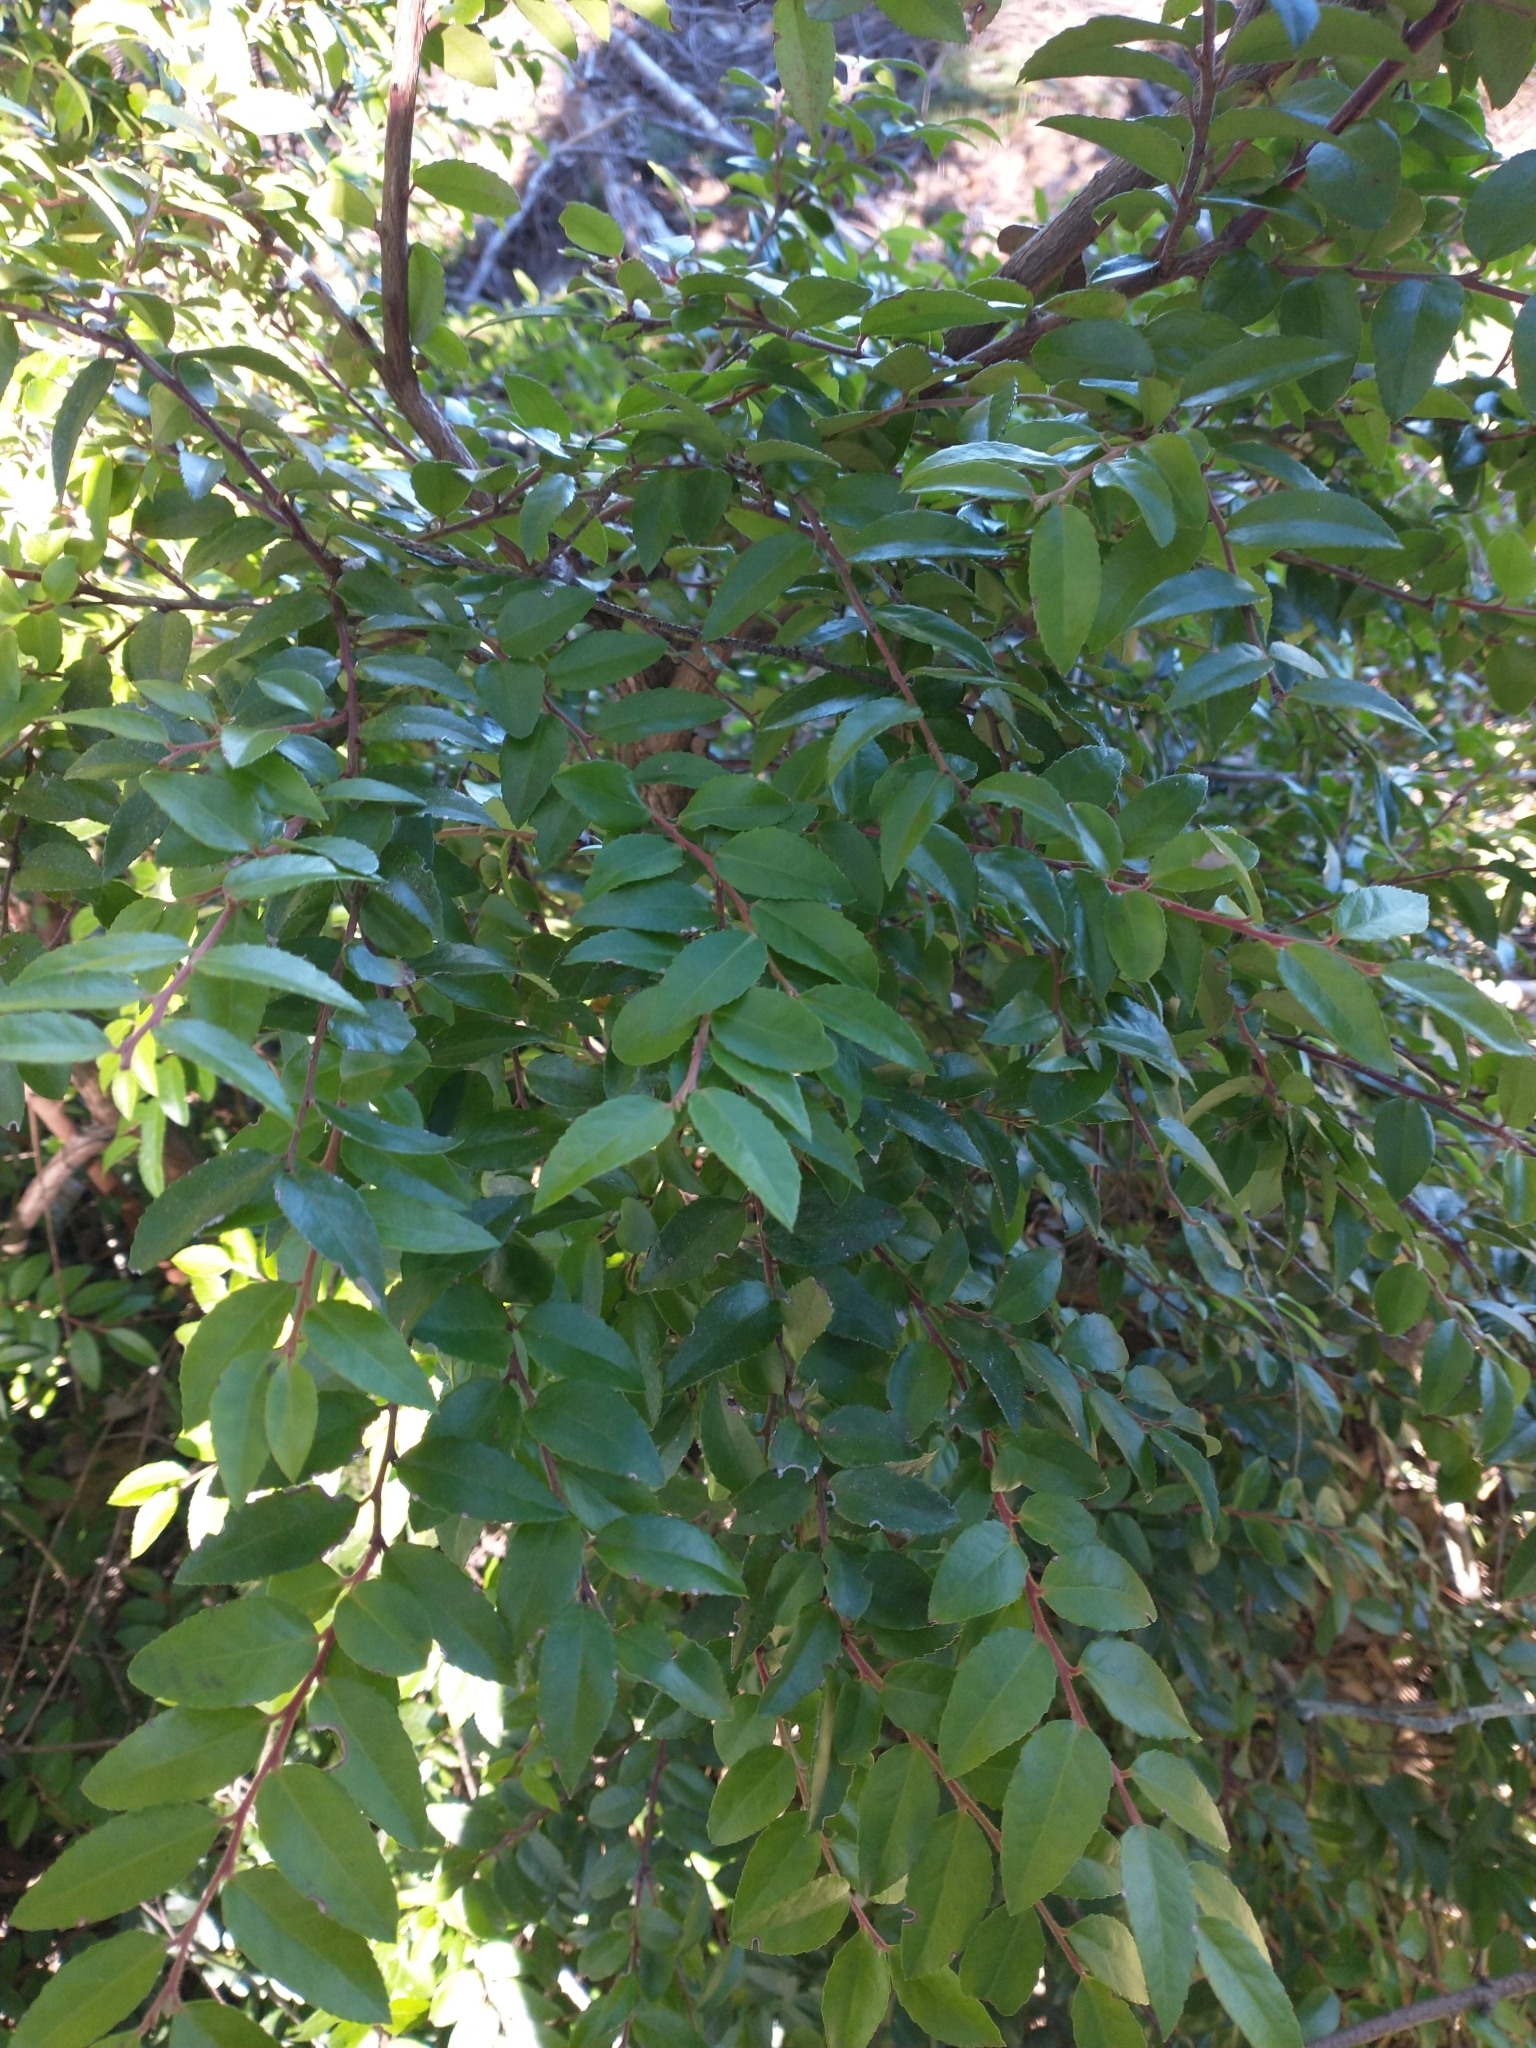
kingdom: Plantae
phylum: Tracheophyta
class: Magnoliopsida
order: Ericales
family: Ericaceae
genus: Vaccinium
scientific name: Vaccinium ovatum
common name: California-huckleberry
